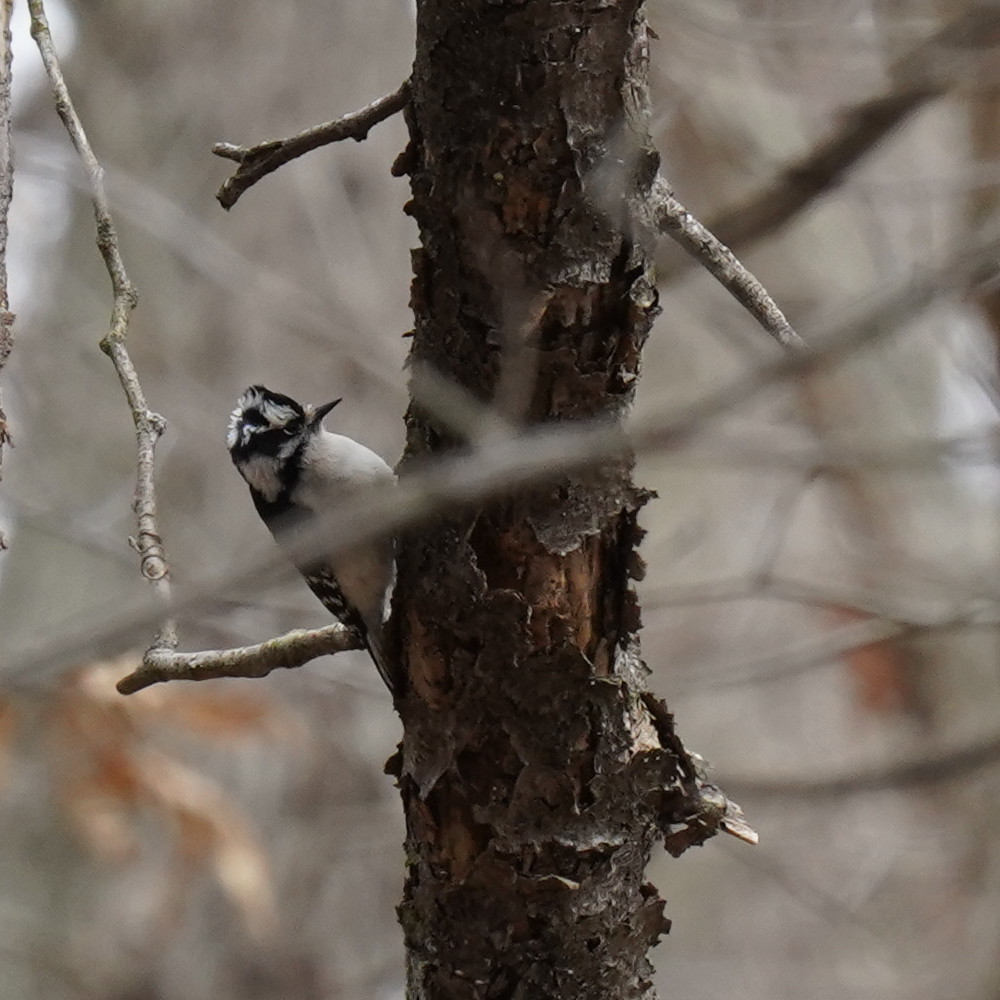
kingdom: Animalia
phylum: Chordata
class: Aves
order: Piciformes
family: Picidae
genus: Dryobates
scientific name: Dryobates pubescens
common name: Downy woodpecker
